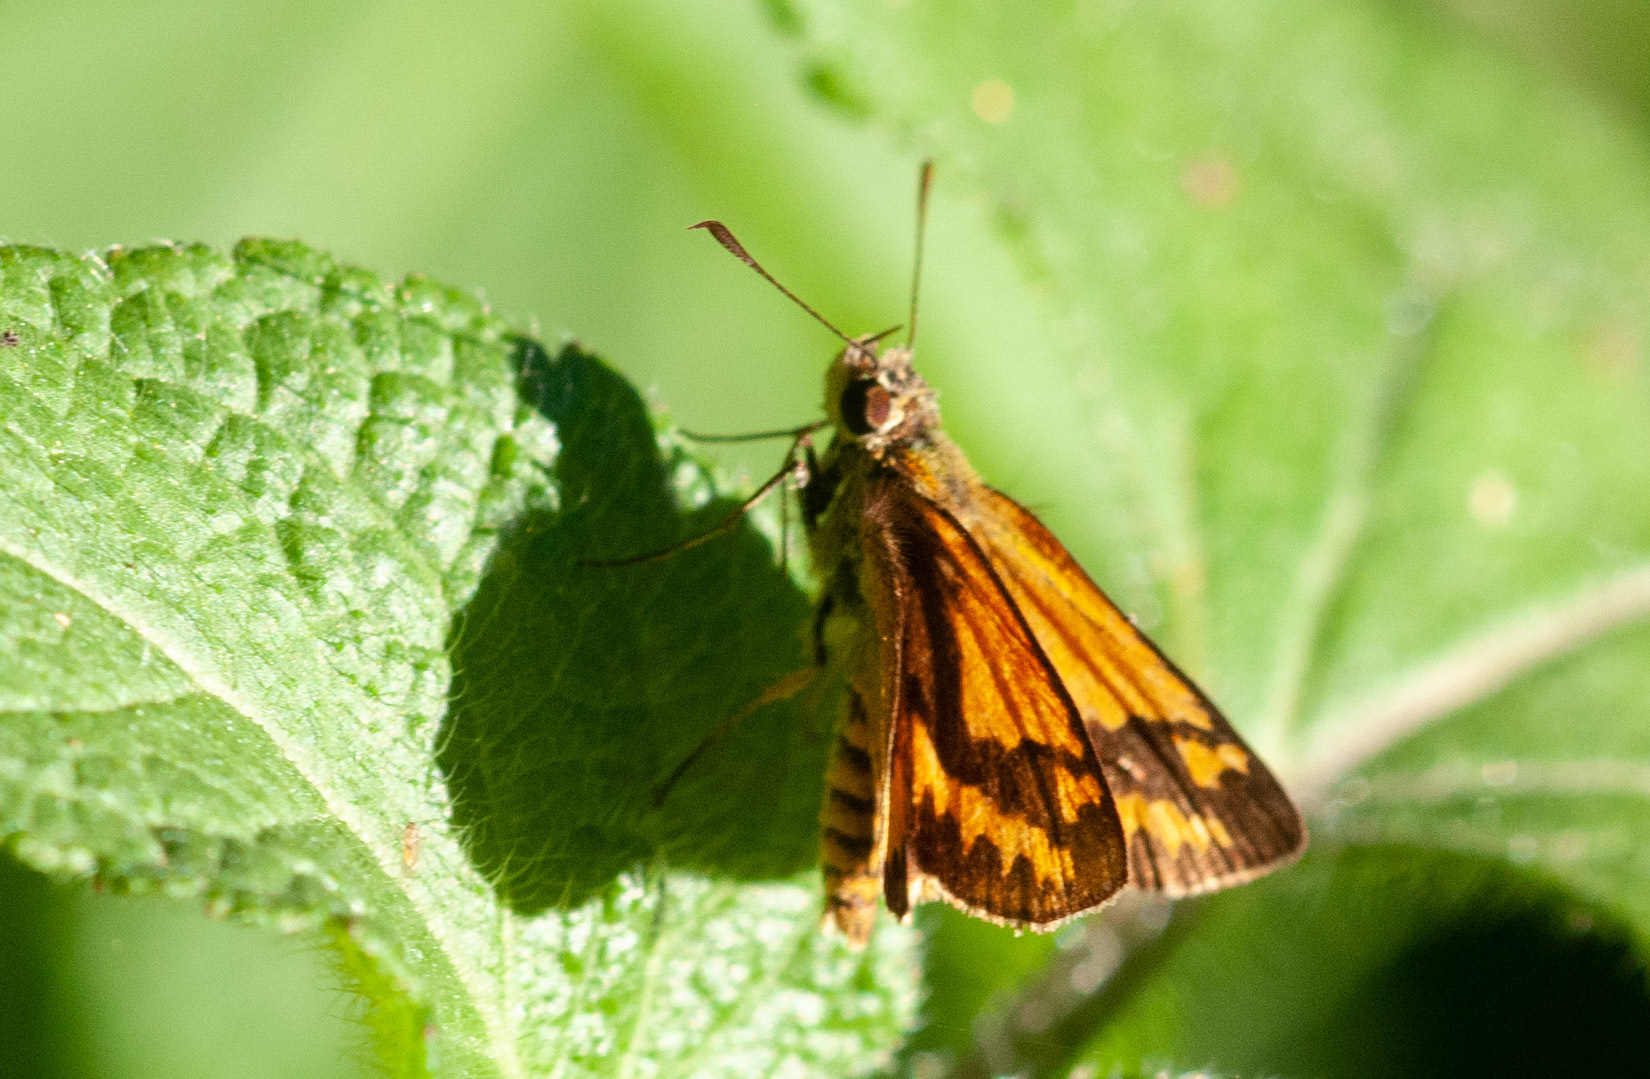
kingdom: Animalia
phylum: Arthropoda
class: Insecta
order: Lepidoptera
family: Hesperiidae
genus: Suniana
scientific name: Suniana sunias
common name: Wide-brand grass-dart
